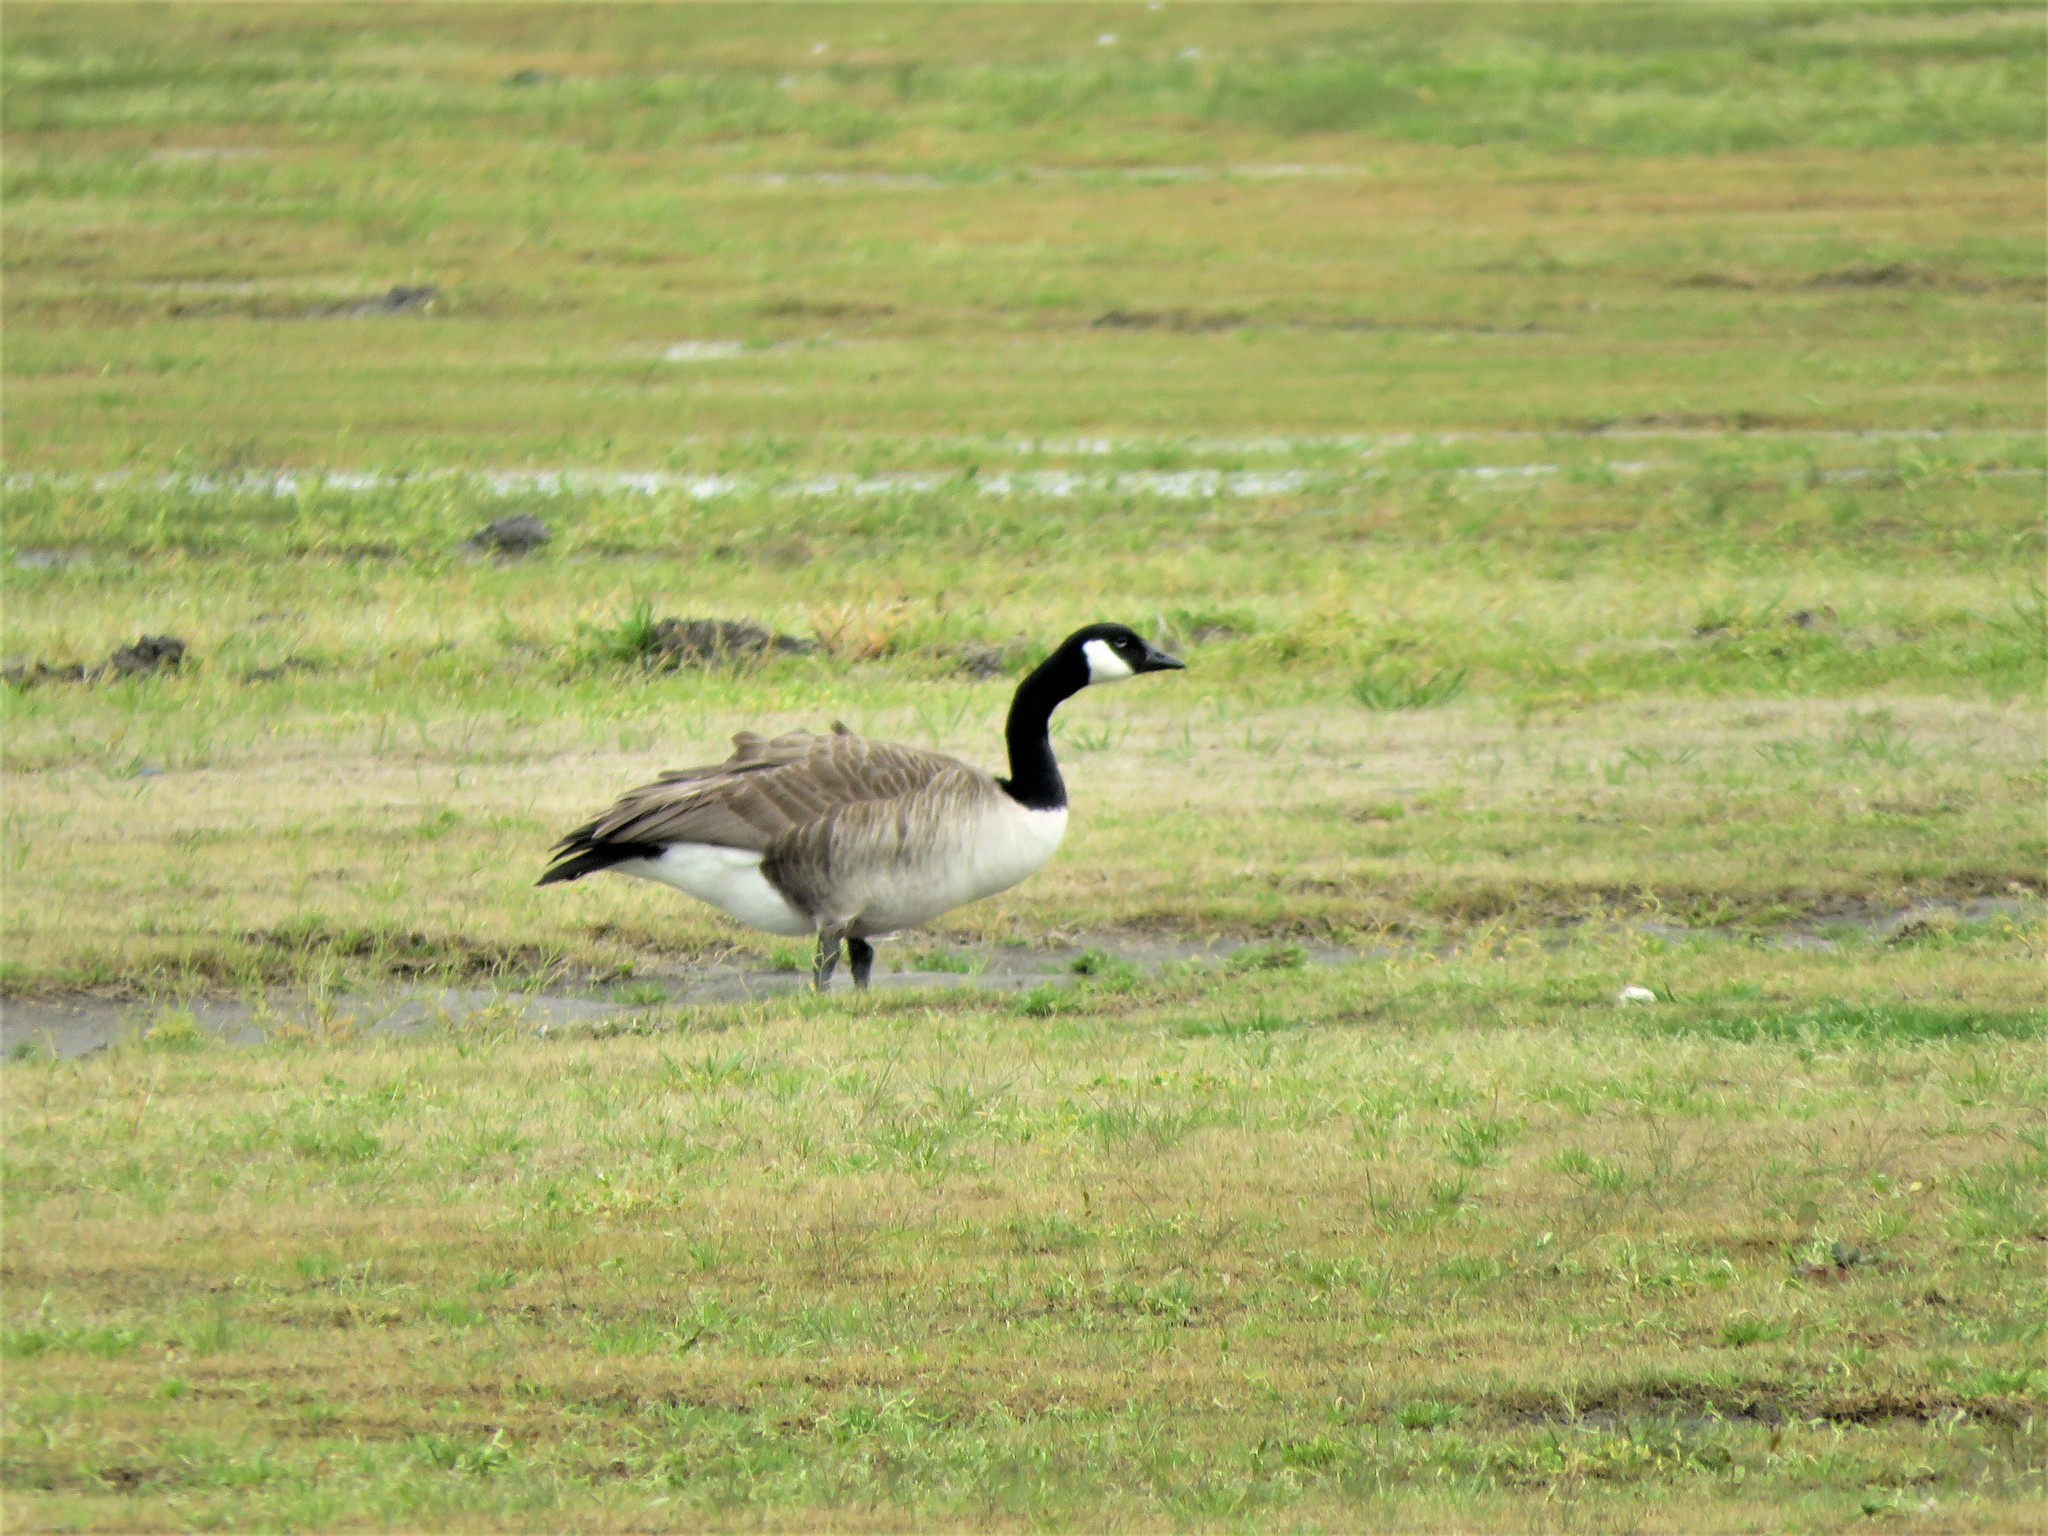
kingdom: Animalia
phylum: Chordata
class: Aves
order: Anseriformes
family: Anatidae
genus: Branta
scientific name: Branta canadensis
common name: Canada goose
